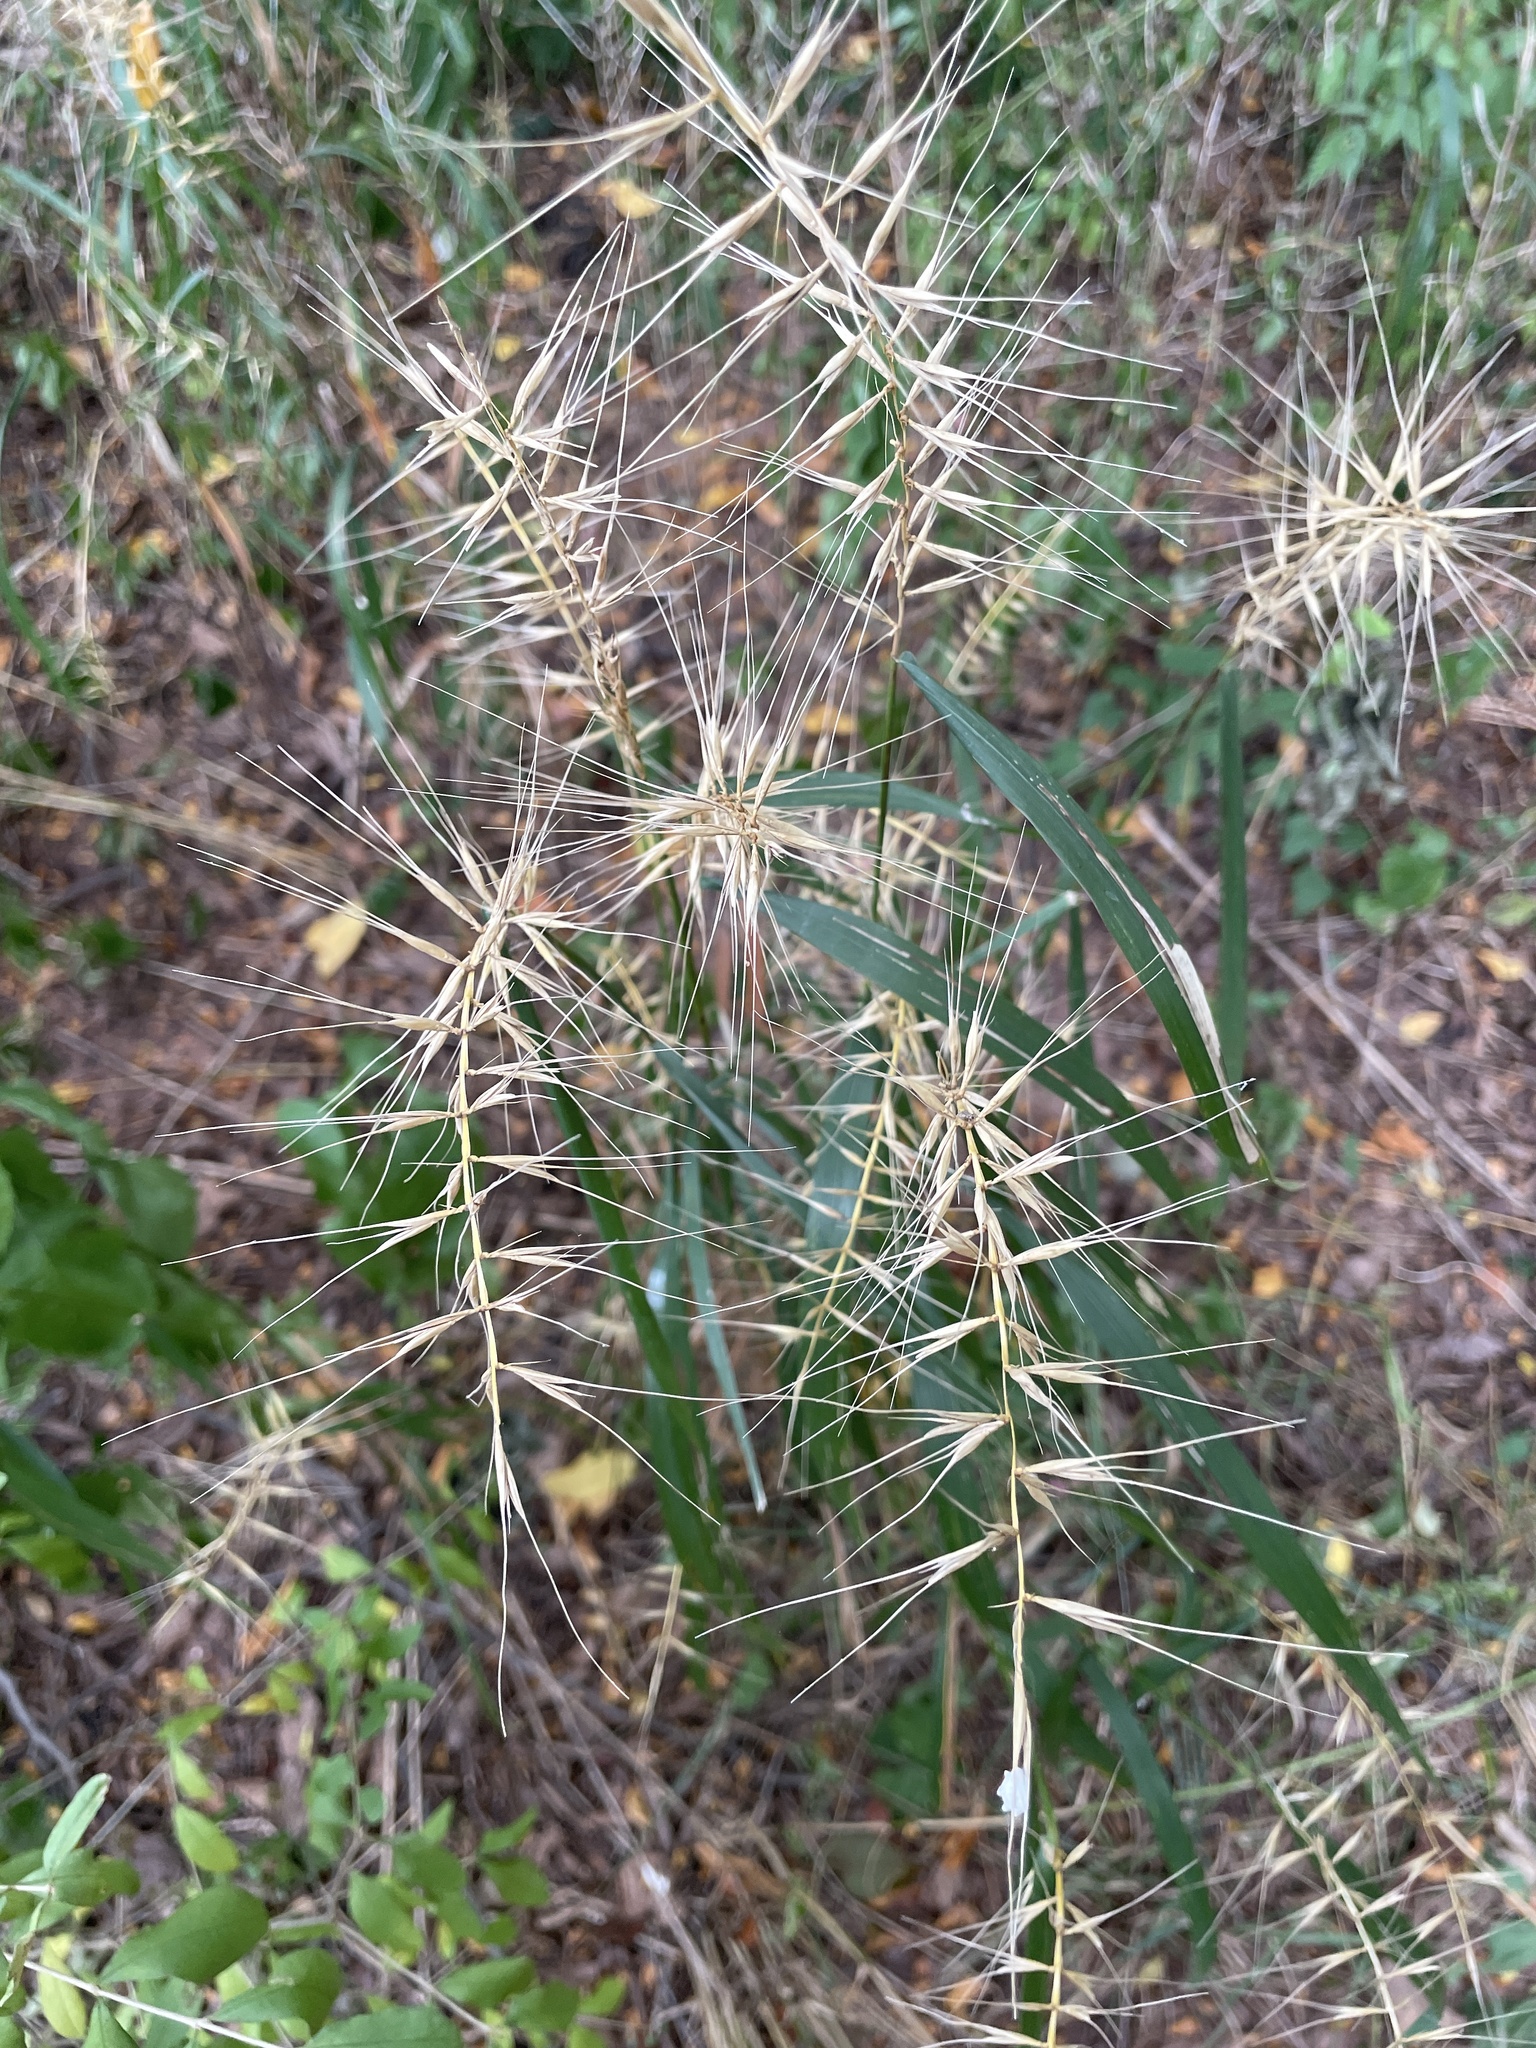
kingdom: Plantae
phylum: Tracheophyta
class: Liliopsida
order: Poales
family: Poaceae
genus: Elymus
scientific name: Elymus hystrix
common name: Bottlebrush grass
